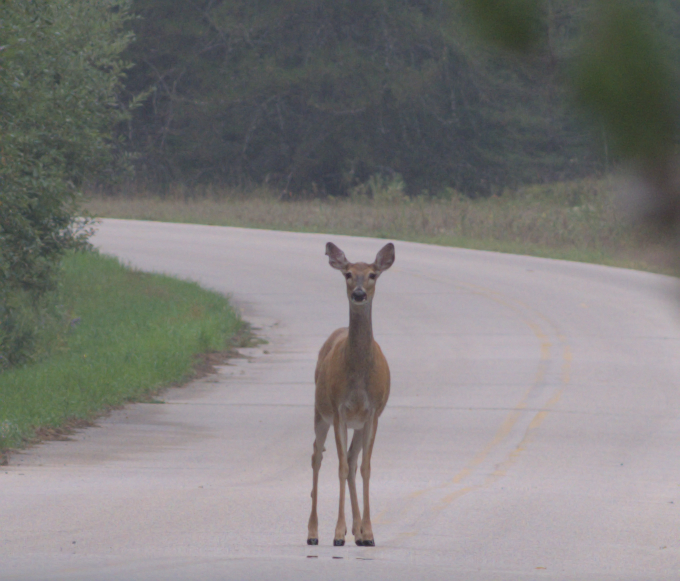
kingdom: Animalia
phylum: Chordata
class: Mammalia
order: Artiodactyla
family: Cervidae
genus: Odocoileus
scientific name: Odocoileus virginianus
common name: White-tailed deer
